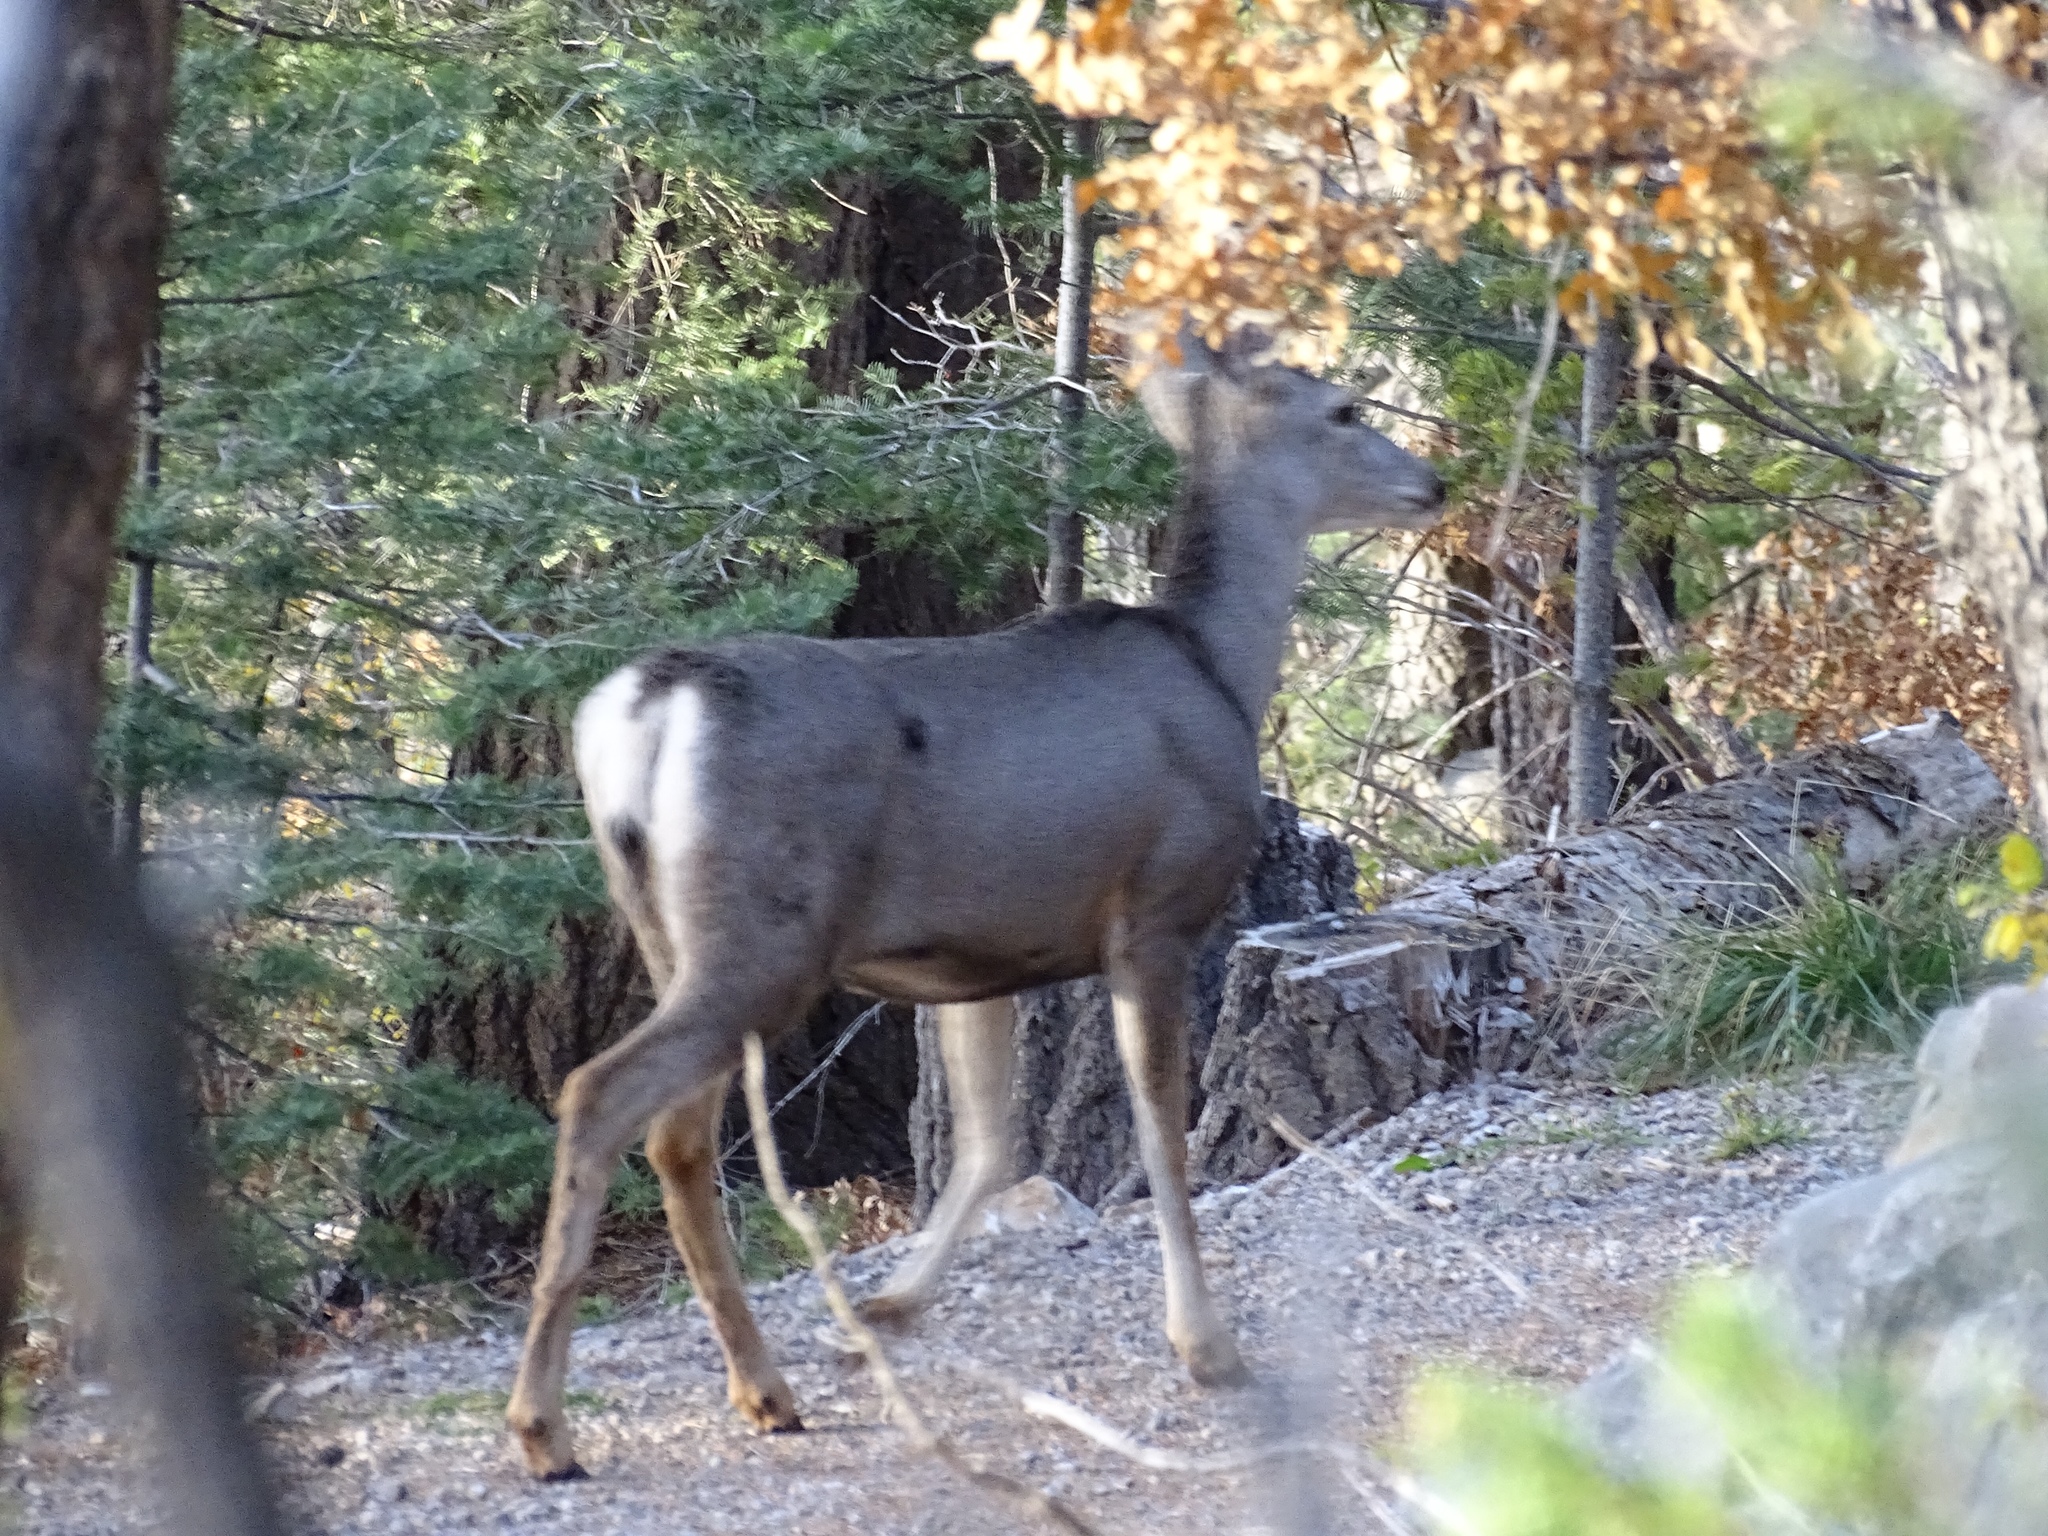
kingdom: Animalia
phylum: Chordata
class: Mammalia
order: Artiodactyla
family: Cervidae
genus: Odocoileus
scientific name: Odocoileus hemionus
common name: Mule deer
